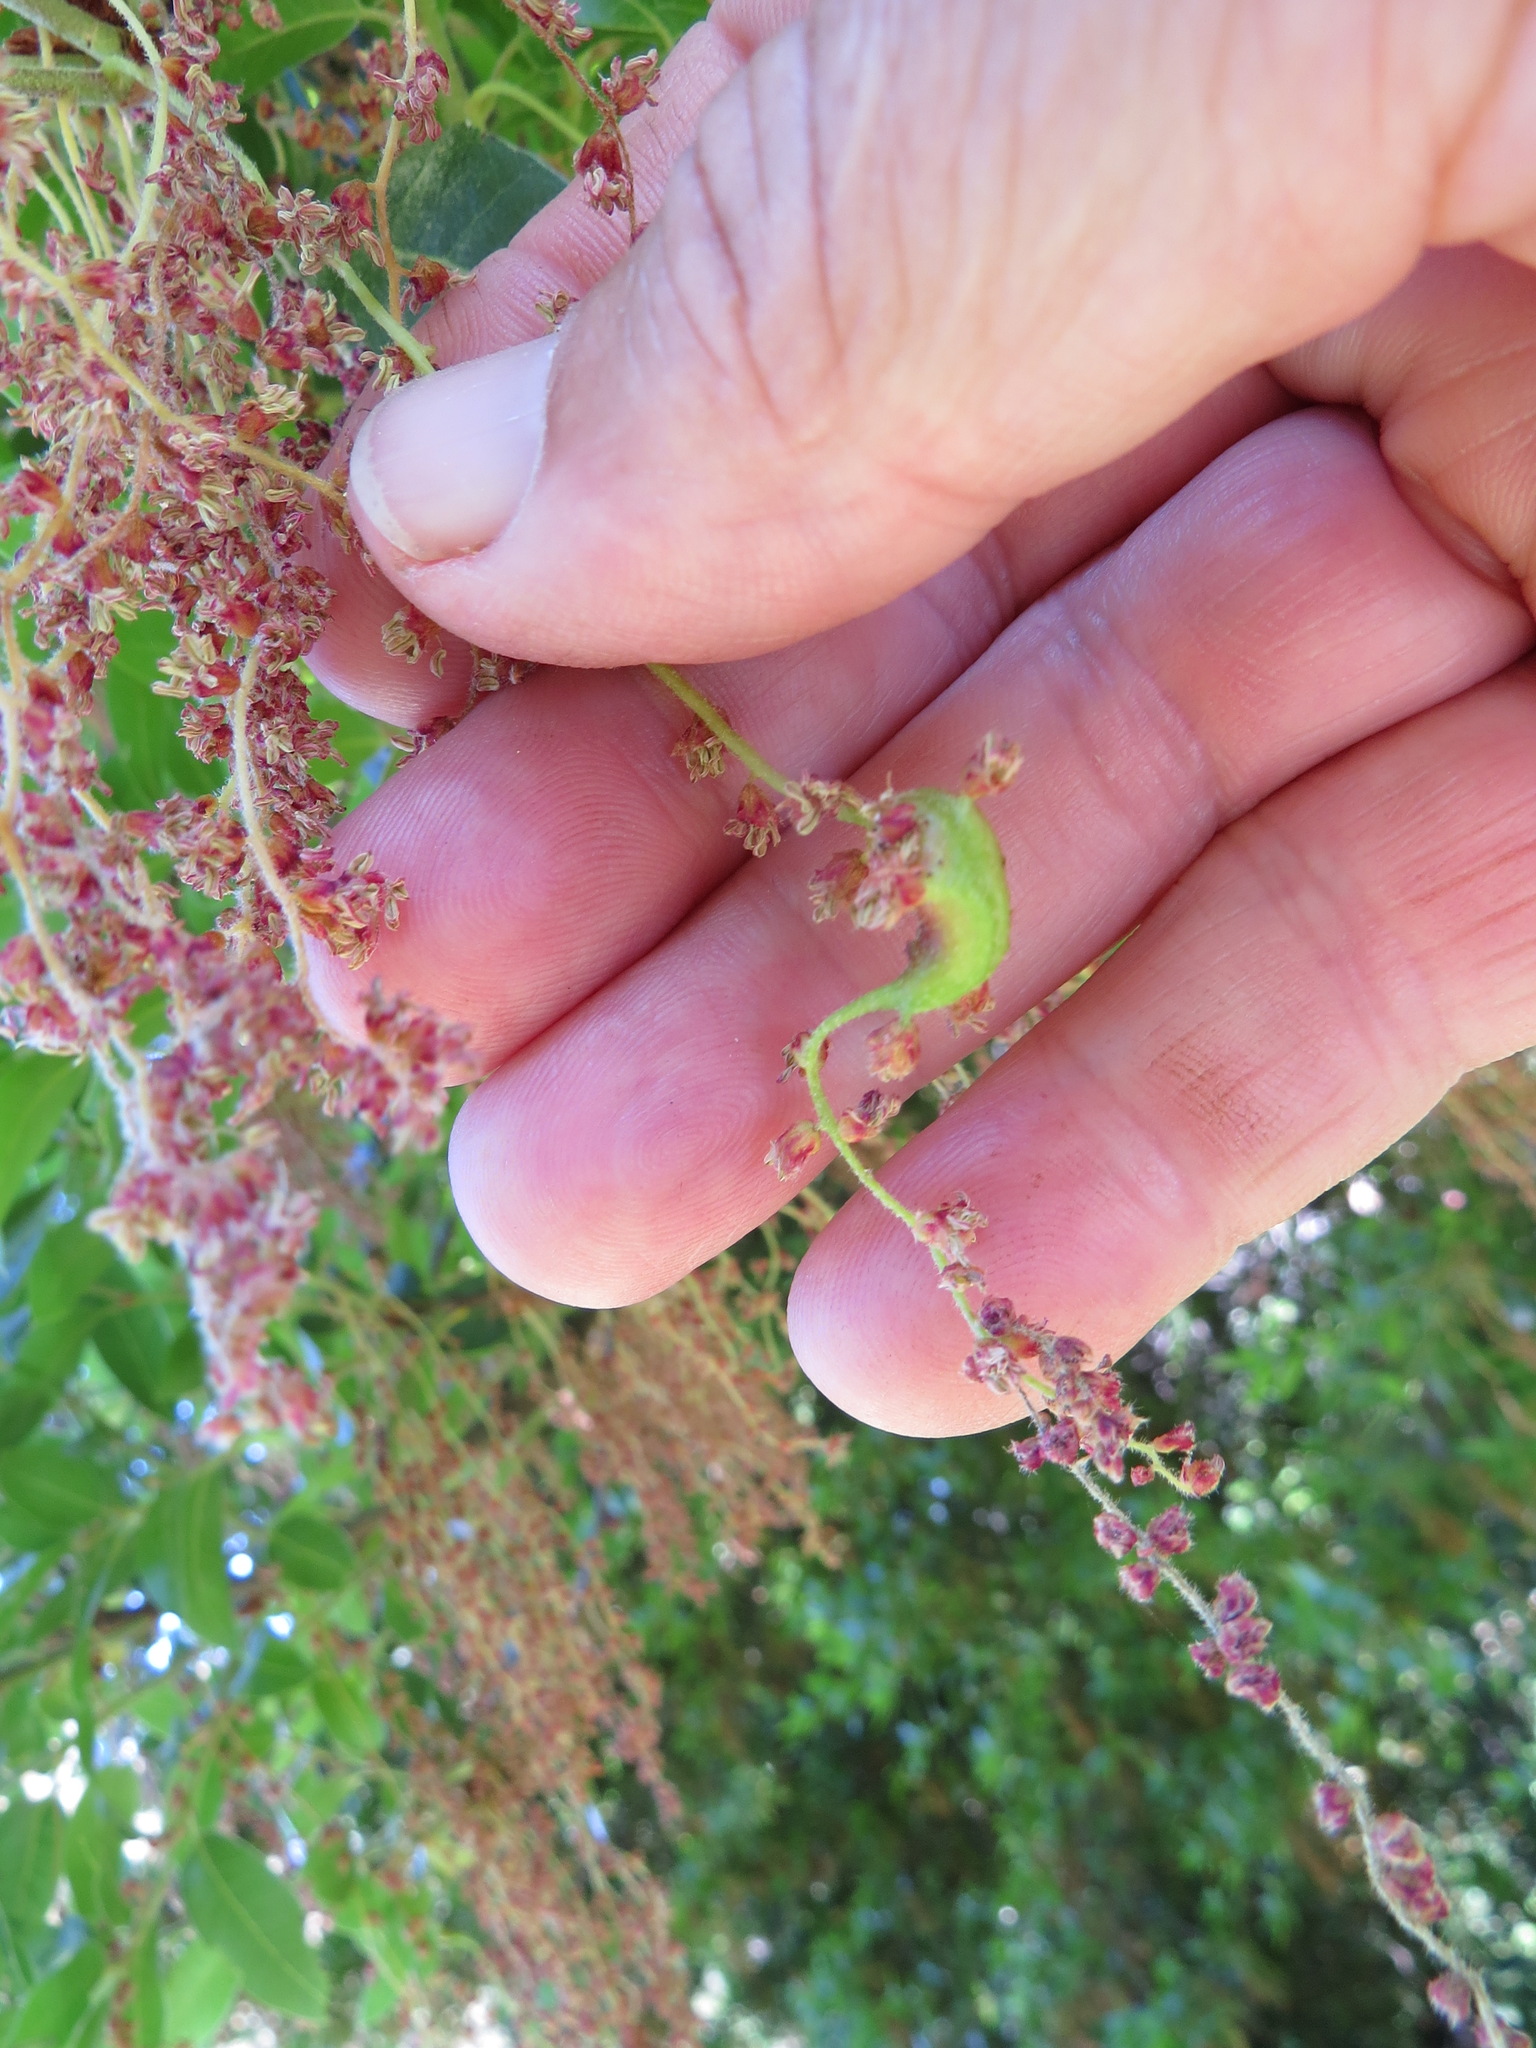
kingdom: Animalia
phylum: Arthropoda
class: Insecta
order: Hymenoptera
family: Cynipidae
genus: Callirhytis
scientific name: Callirhytis
